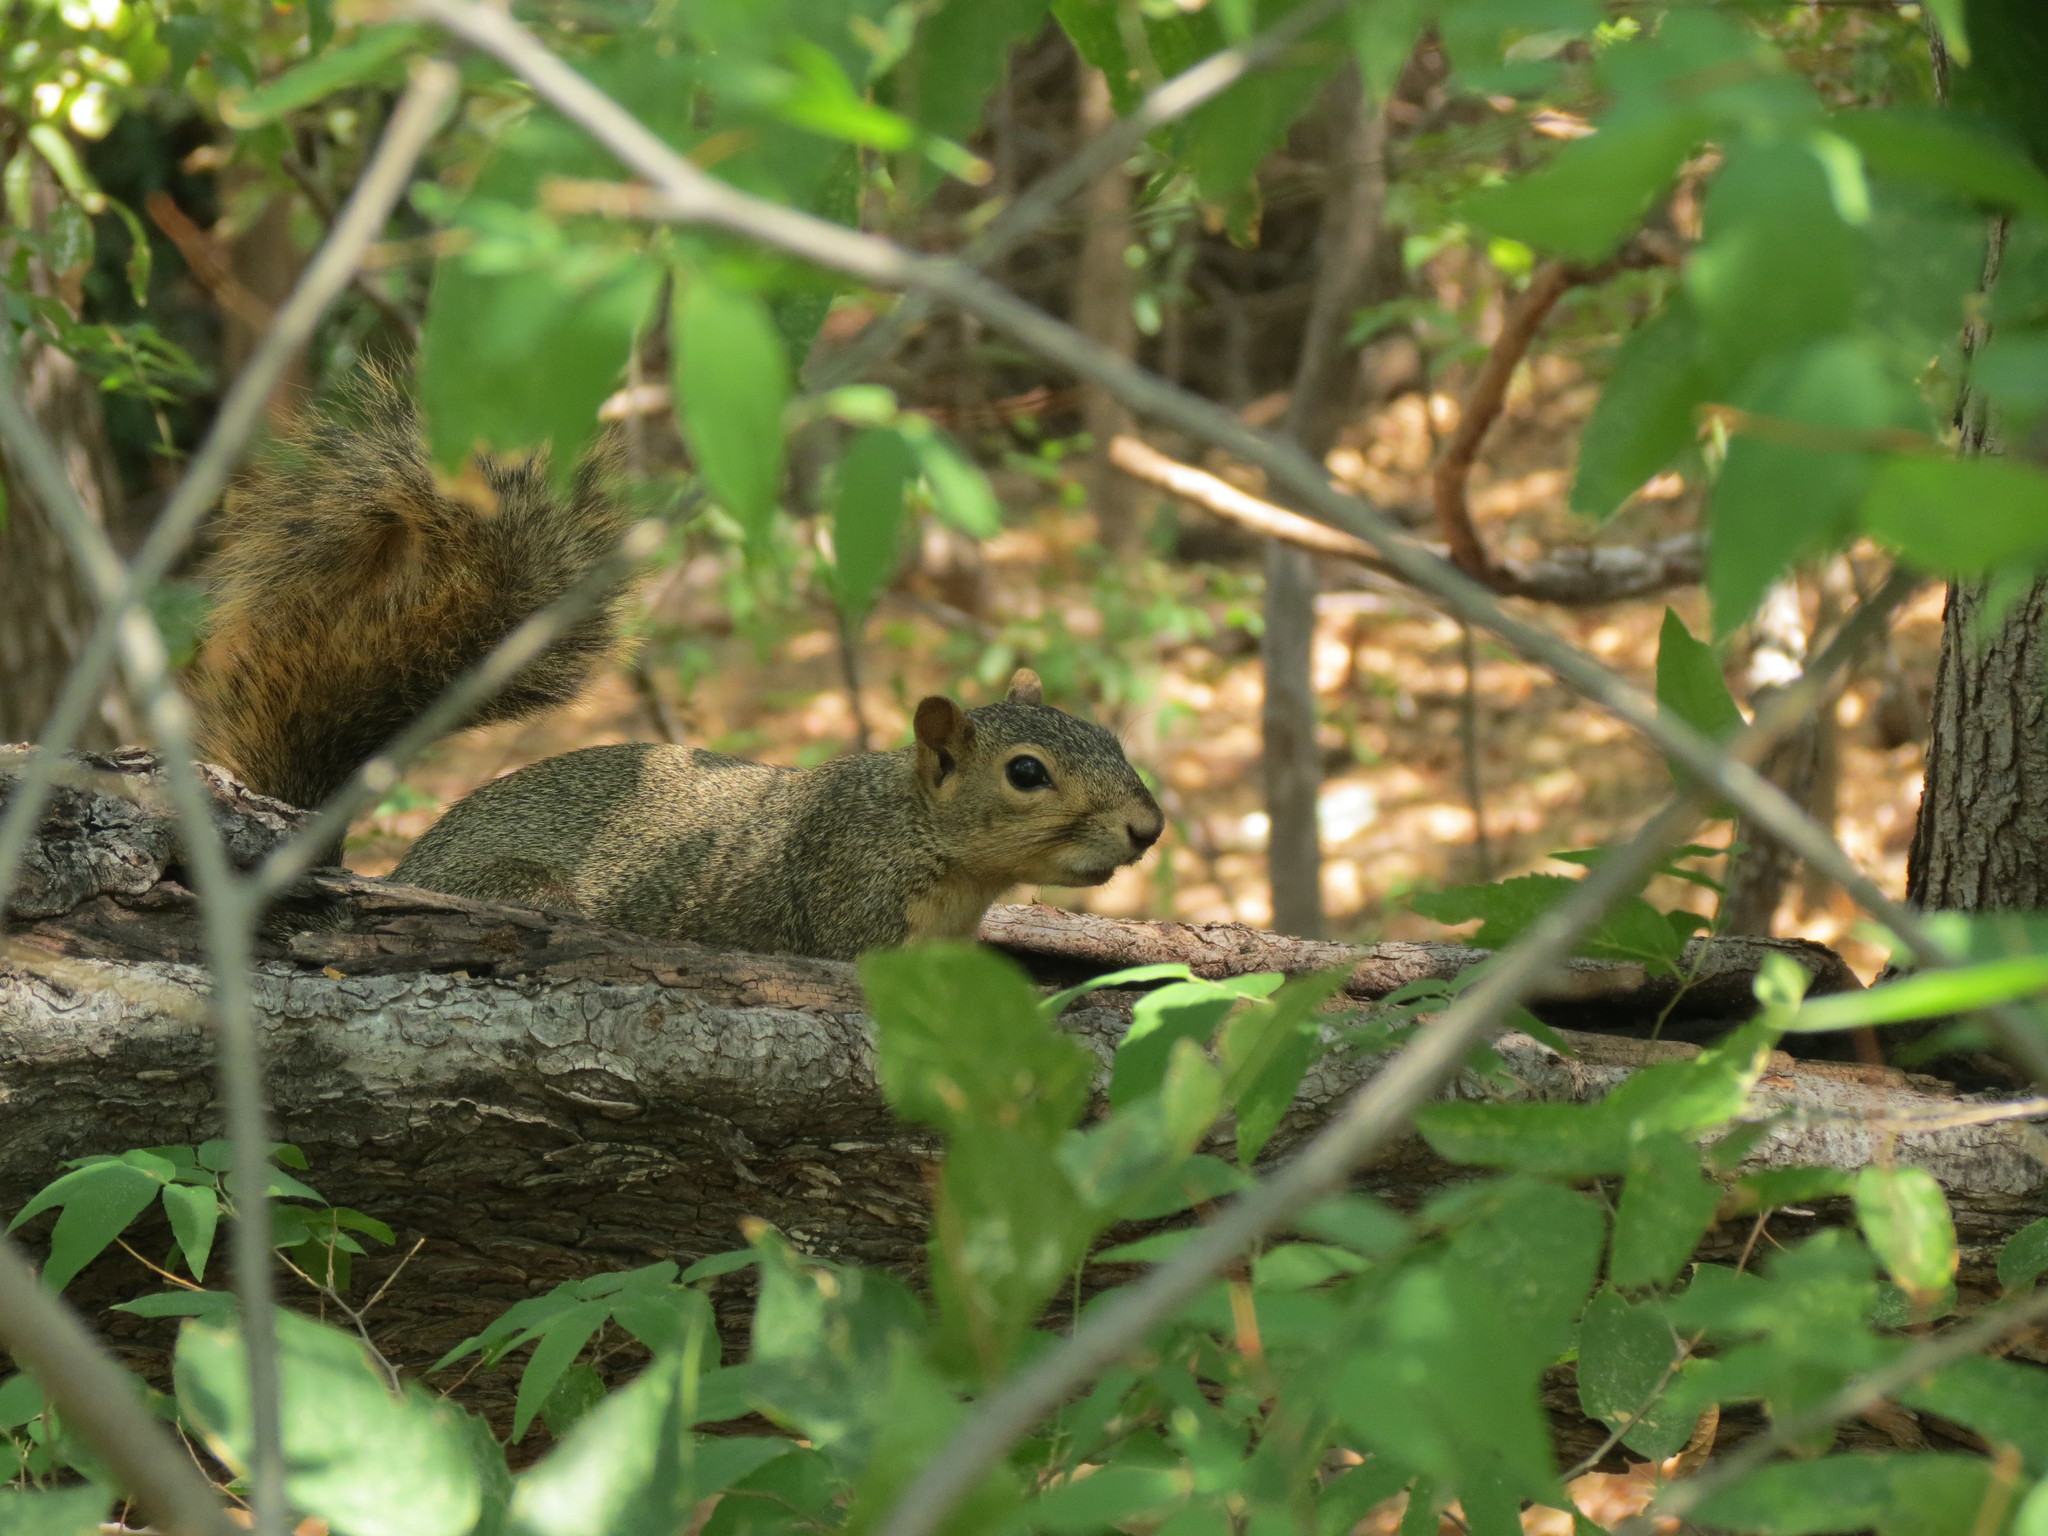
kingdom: Animalia
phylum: Chordata
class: Mammalia
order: Rodentia
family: Sciuridae
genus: Sciurus
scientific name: Sciurus niger
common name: Fox squirrel
